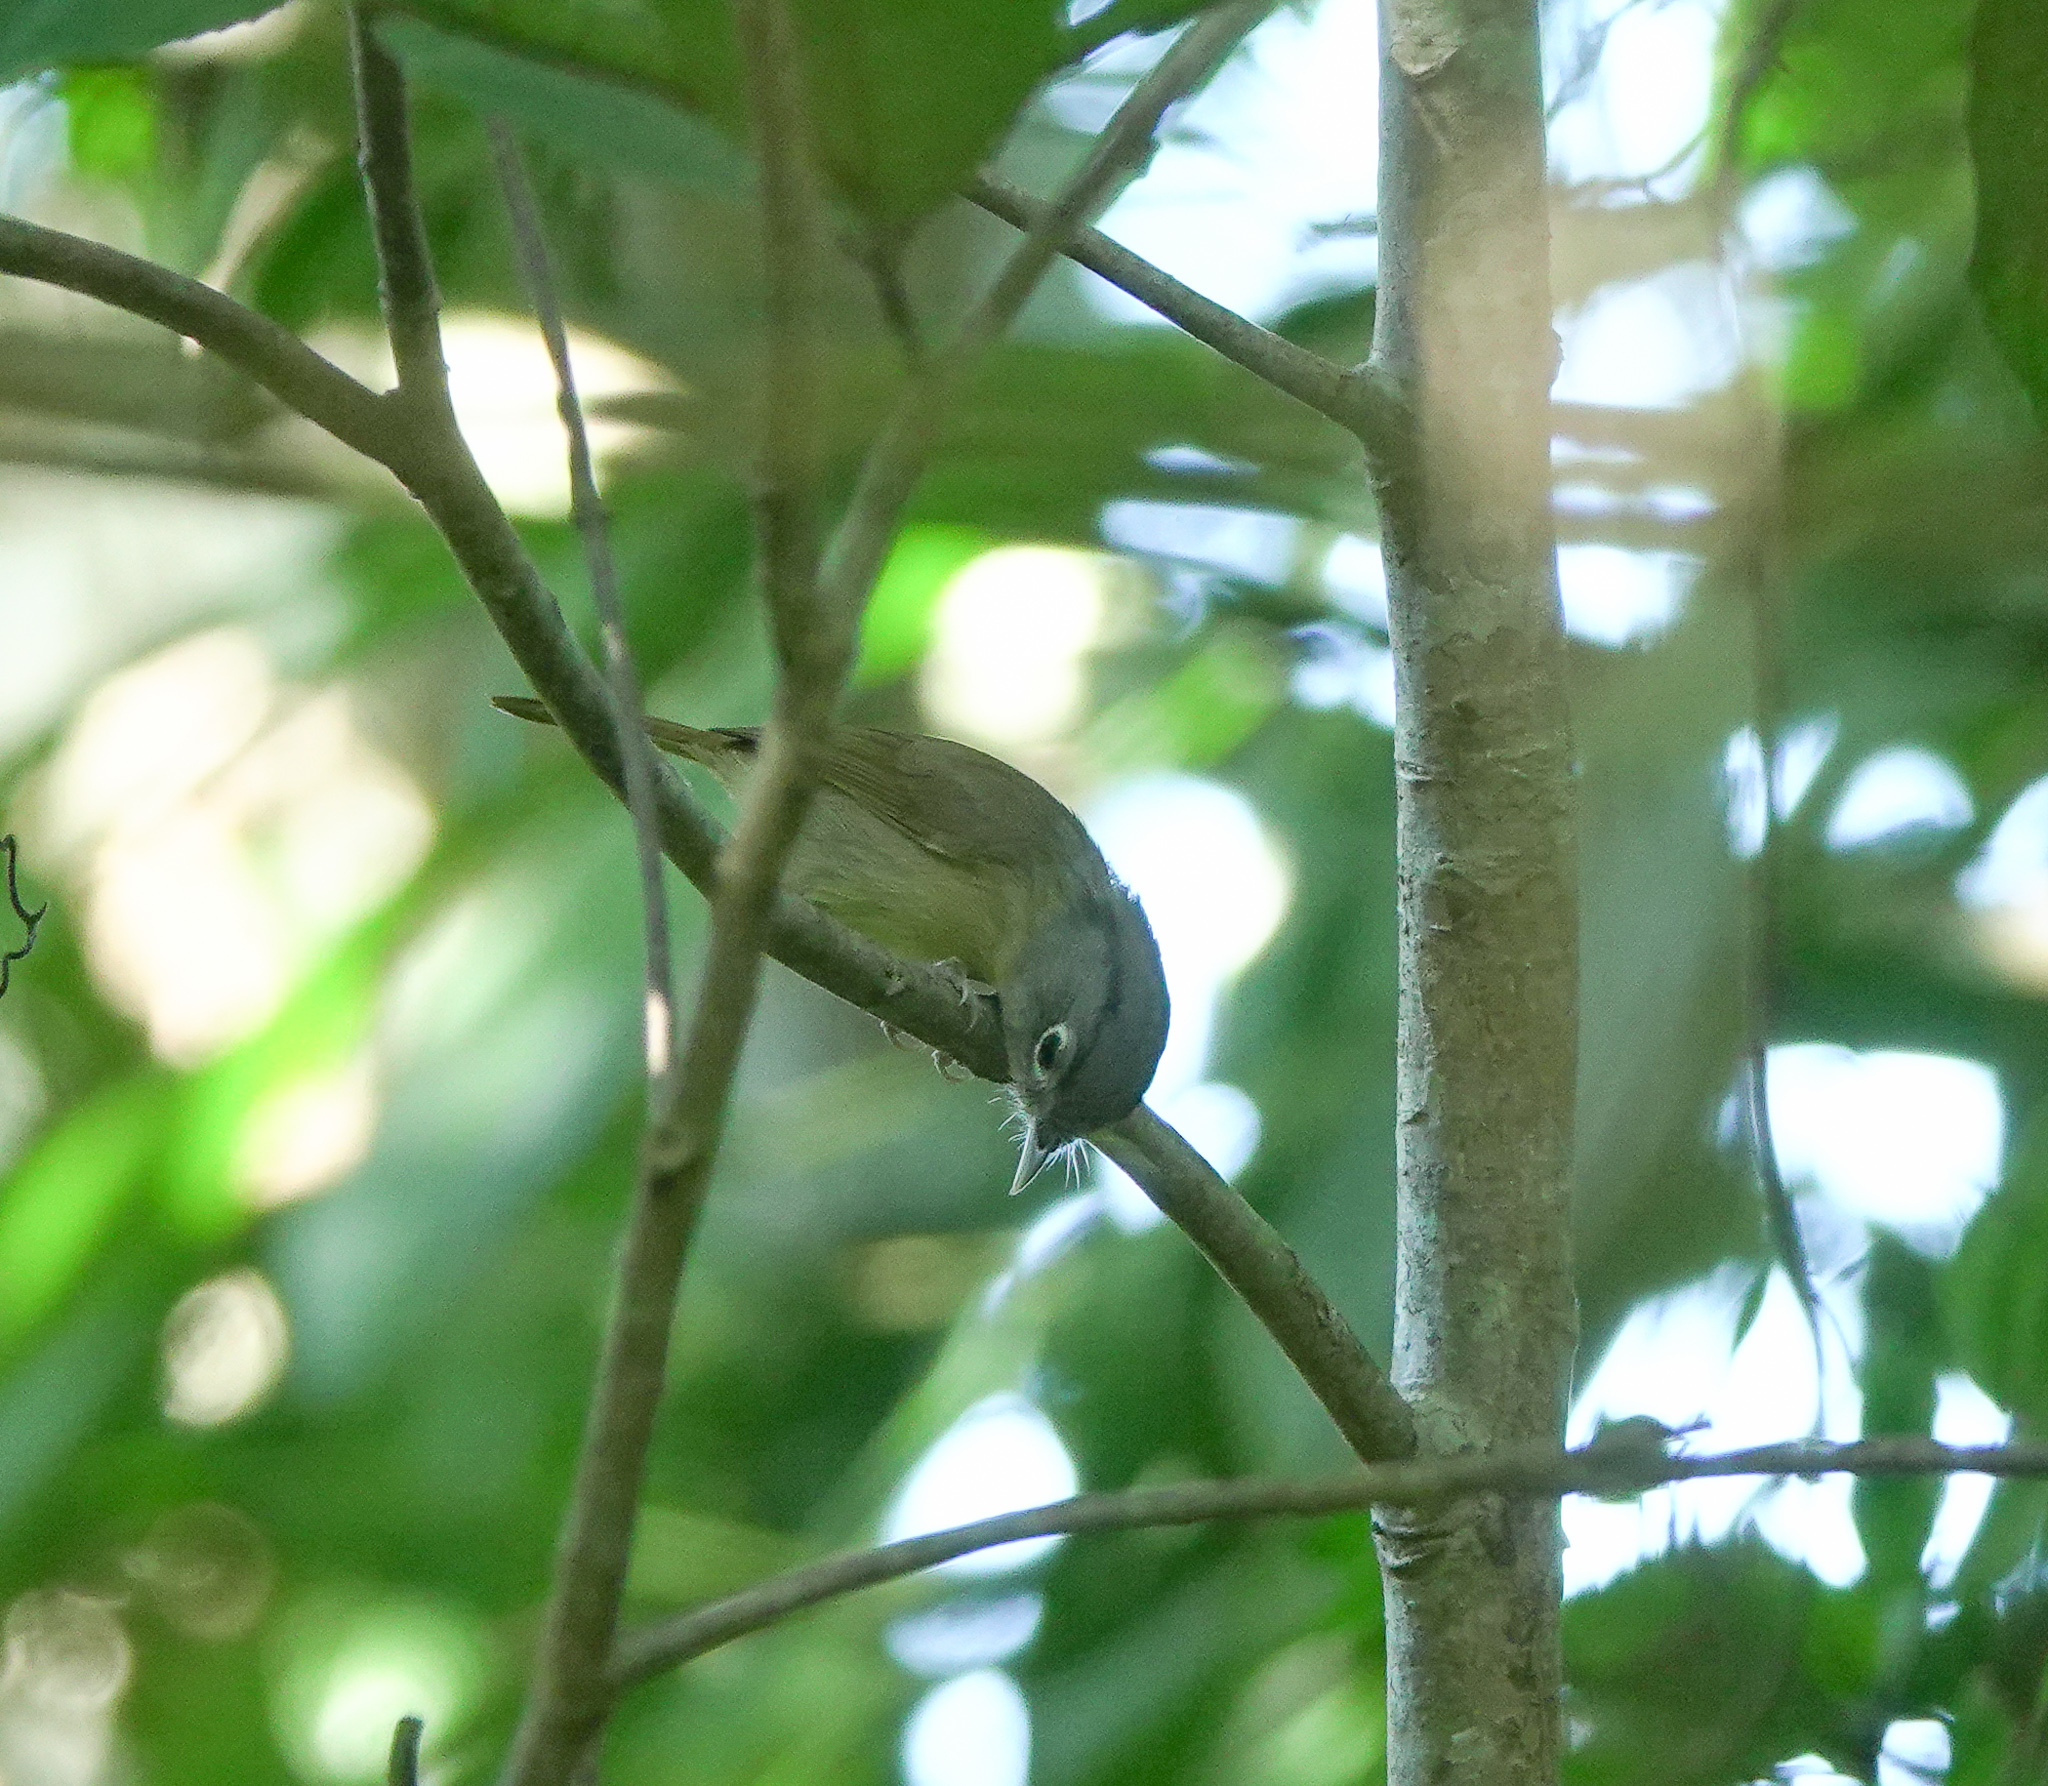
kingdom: Animalia
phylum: Chordata
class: Aves
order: Passeriformes
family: Pellorneidae
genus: Alcippe
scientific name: Alcippe nipalensis
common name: Nepal fulvetta
